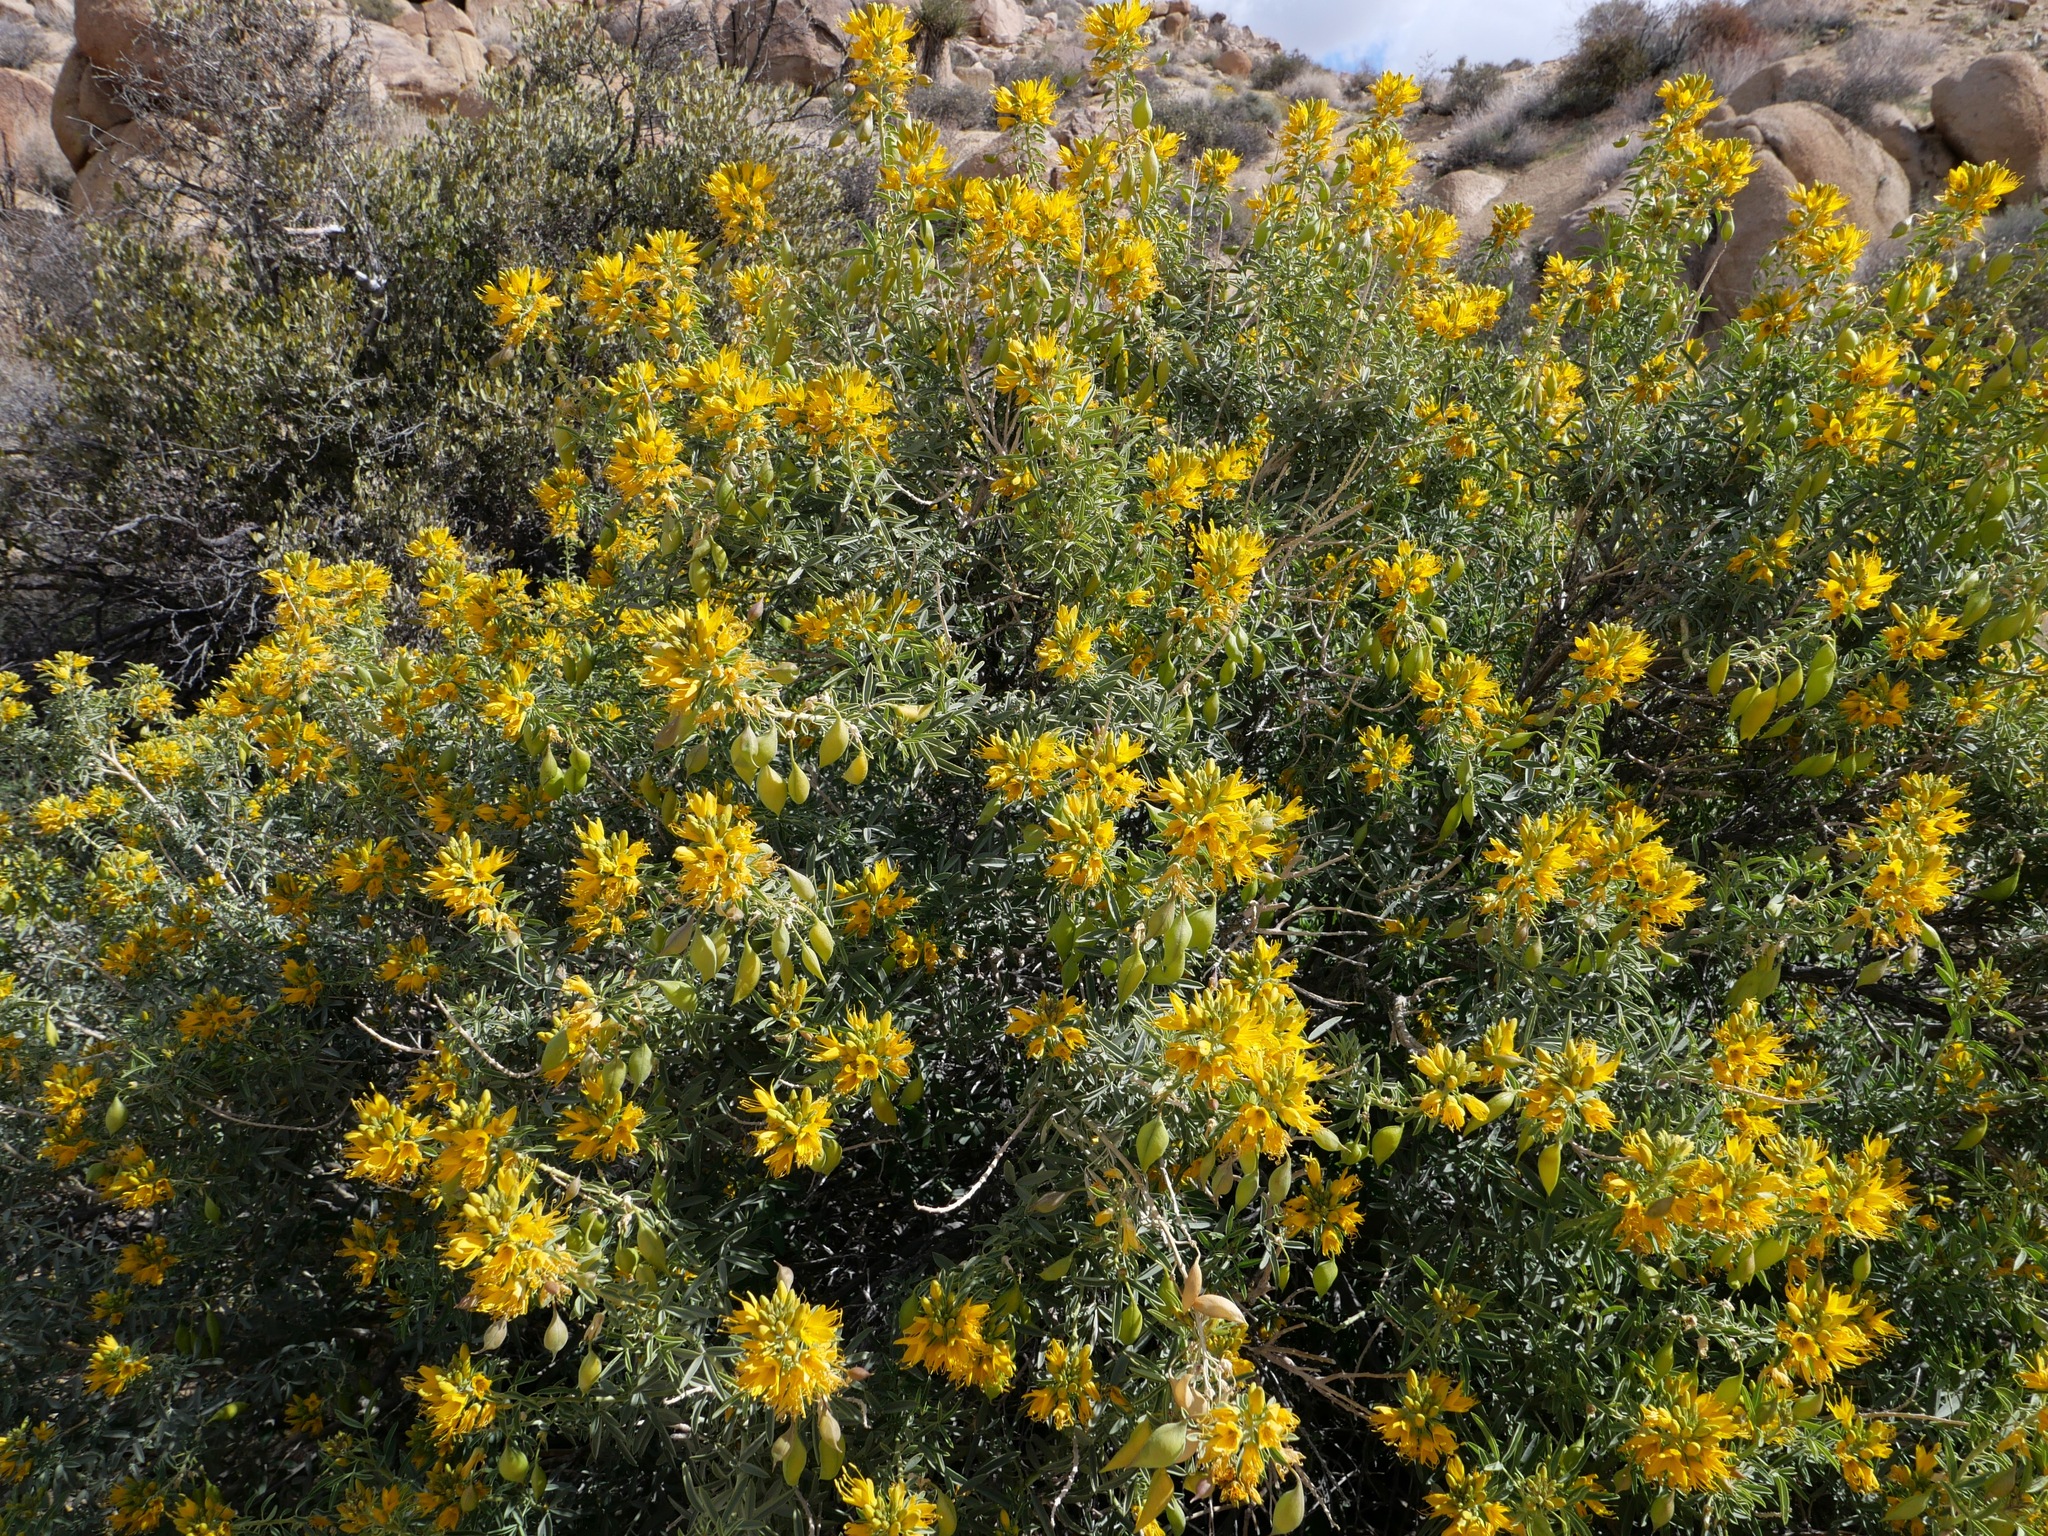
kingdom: Plantae
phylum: Tracheophyta
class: Magnoliopsida
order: Brassicales
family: Cleomaceae
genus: Cleomella
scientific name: Cleomella arborea
